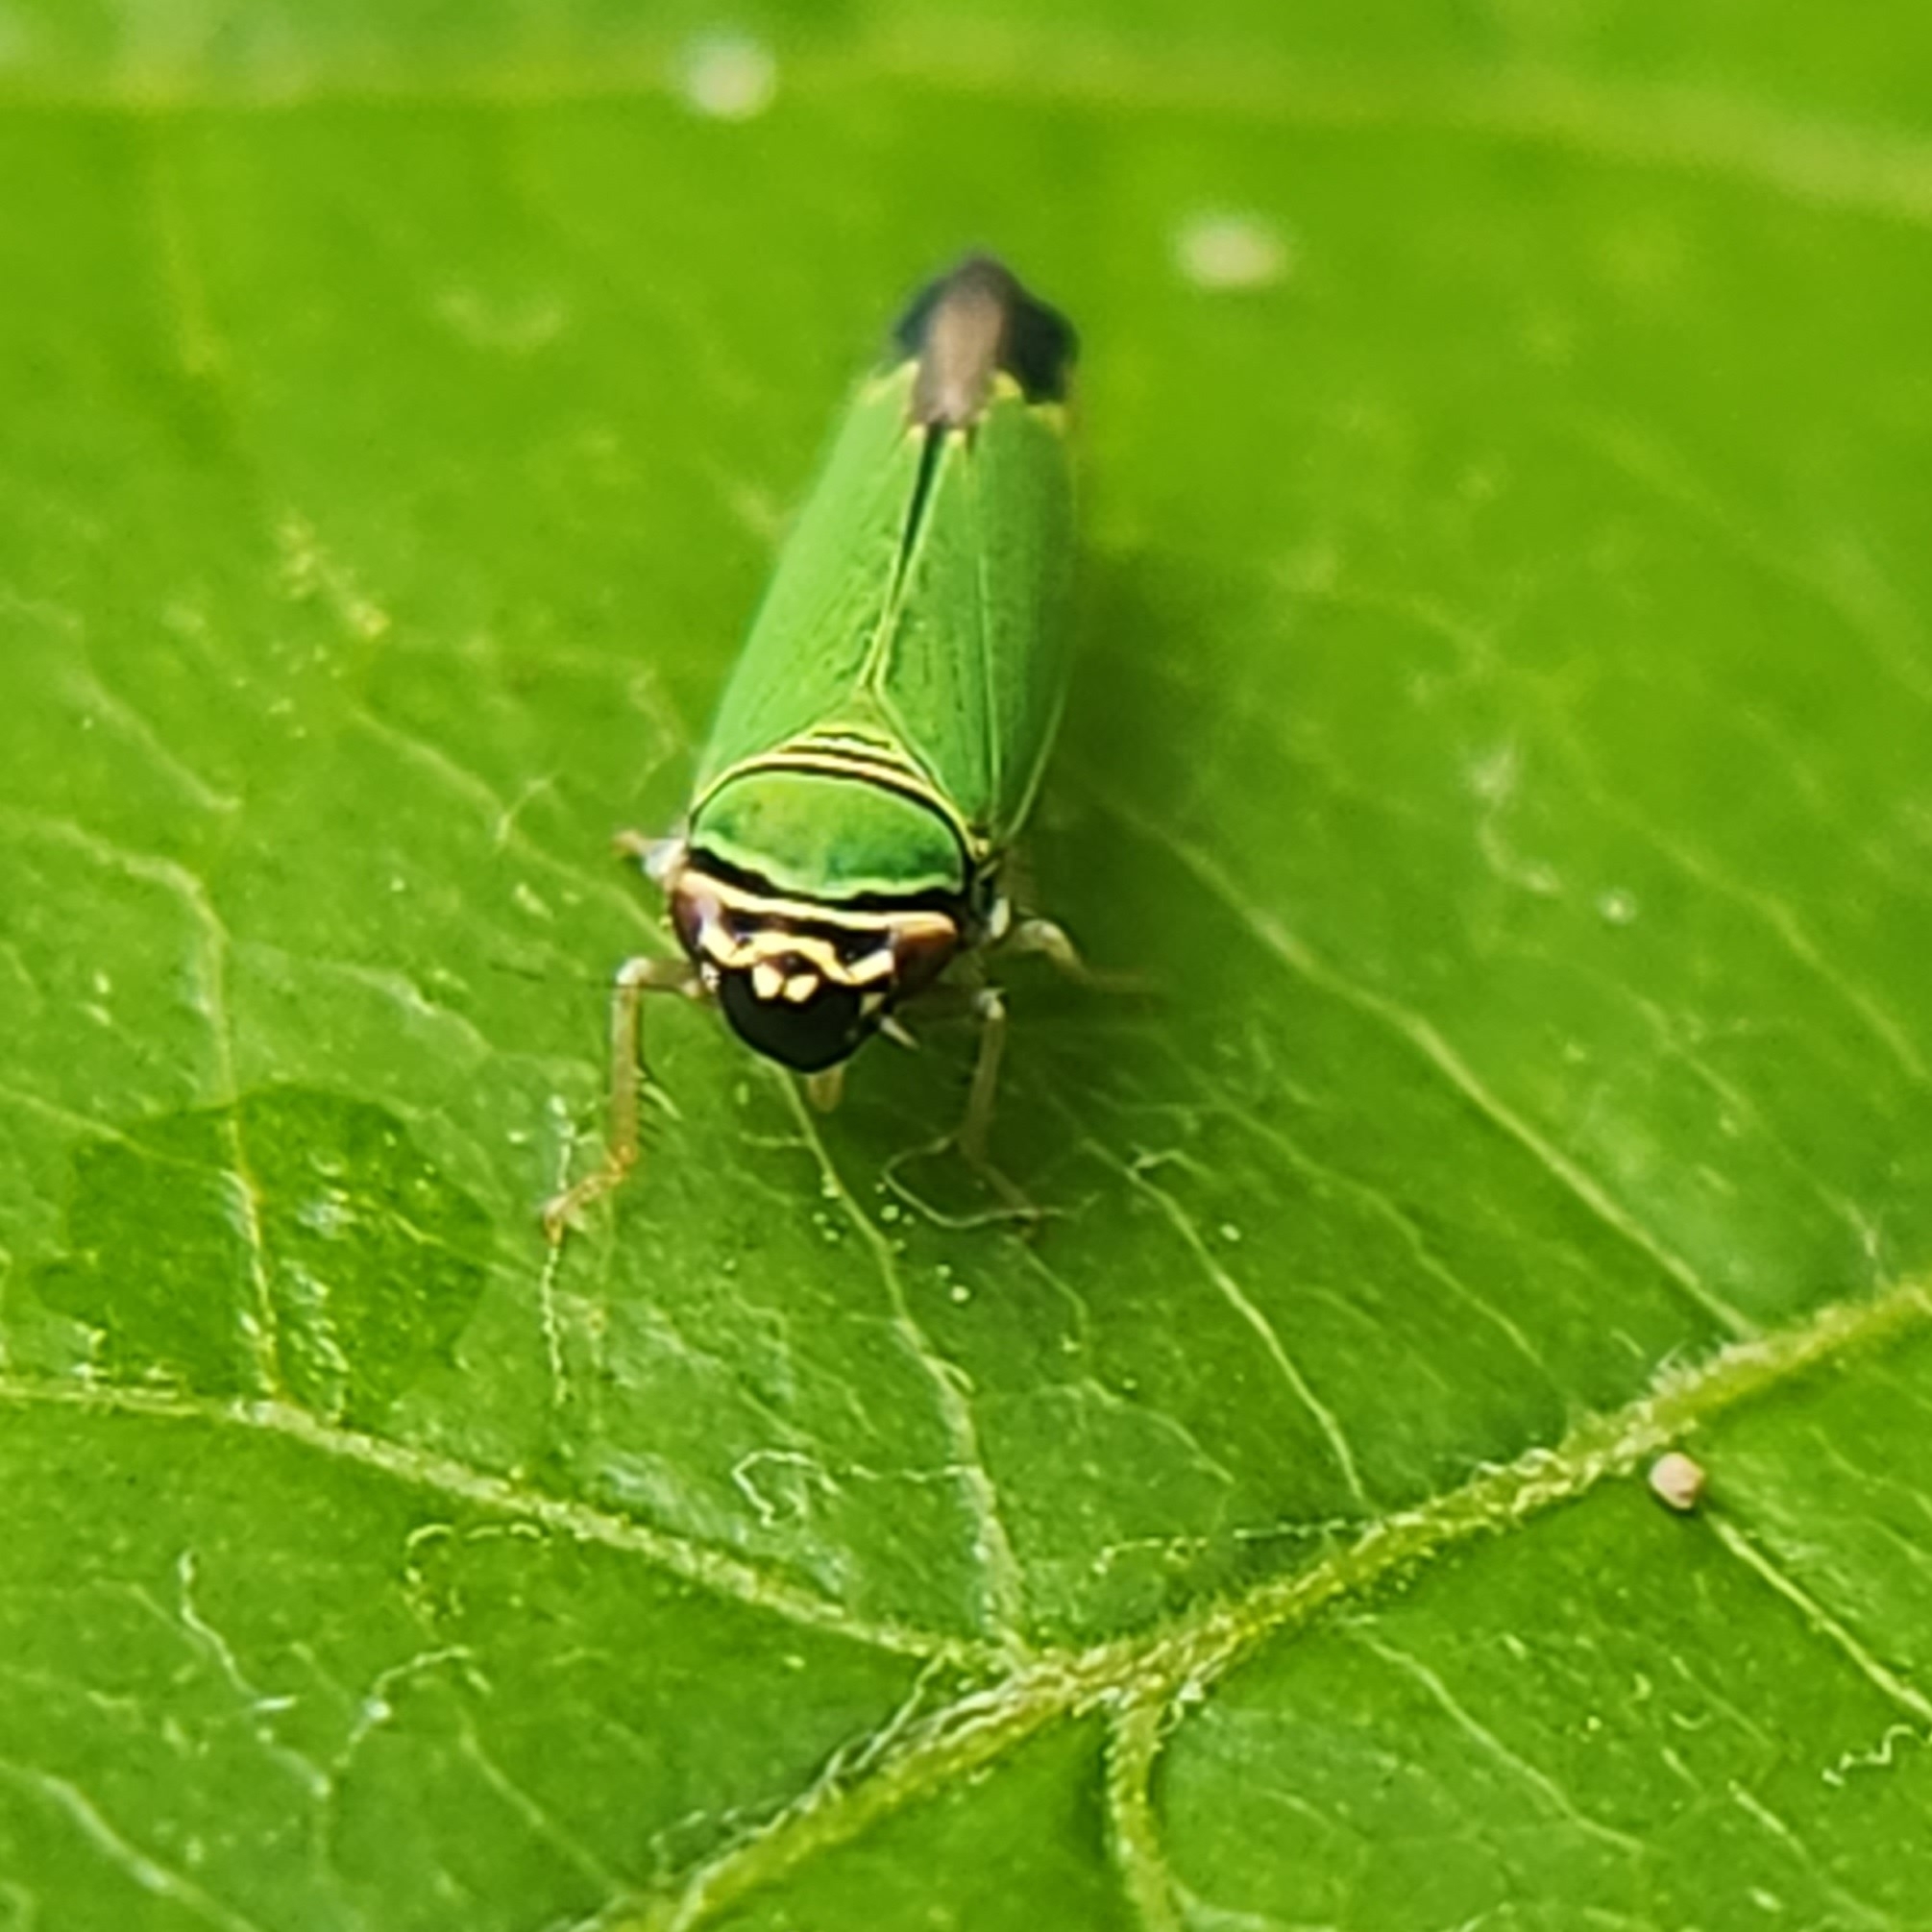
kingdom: Animalia
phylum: Arthropoda
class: Insecta
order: Hemiptera
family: Cicadellidae
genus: Tylozygus
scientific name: Tylozygus geometricus
